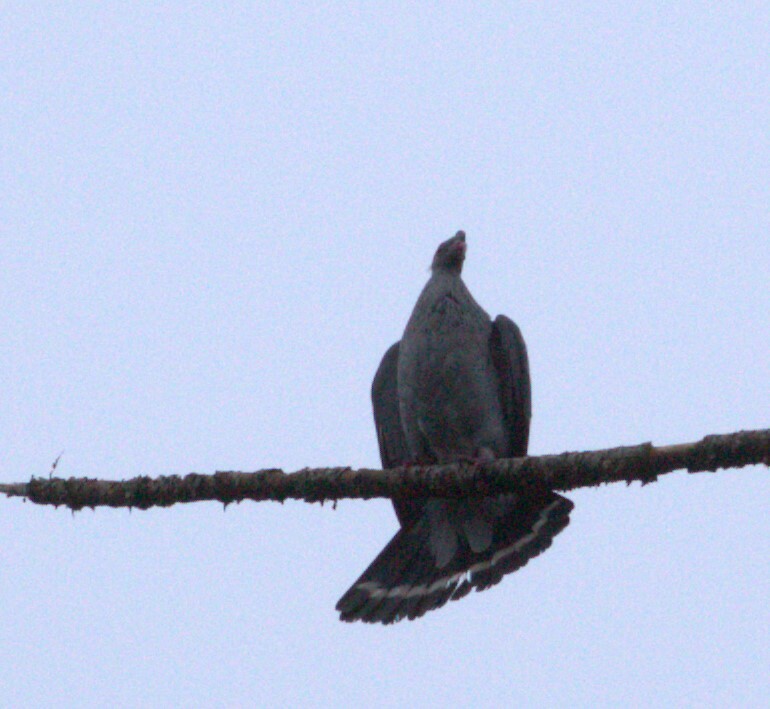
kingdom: Animalia
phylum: Chordata
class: Aves
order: Columbiformes
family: Columbidae
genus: Lopholaimus
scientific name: Lopholaimus antarcticus
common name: Topknot pigeon
